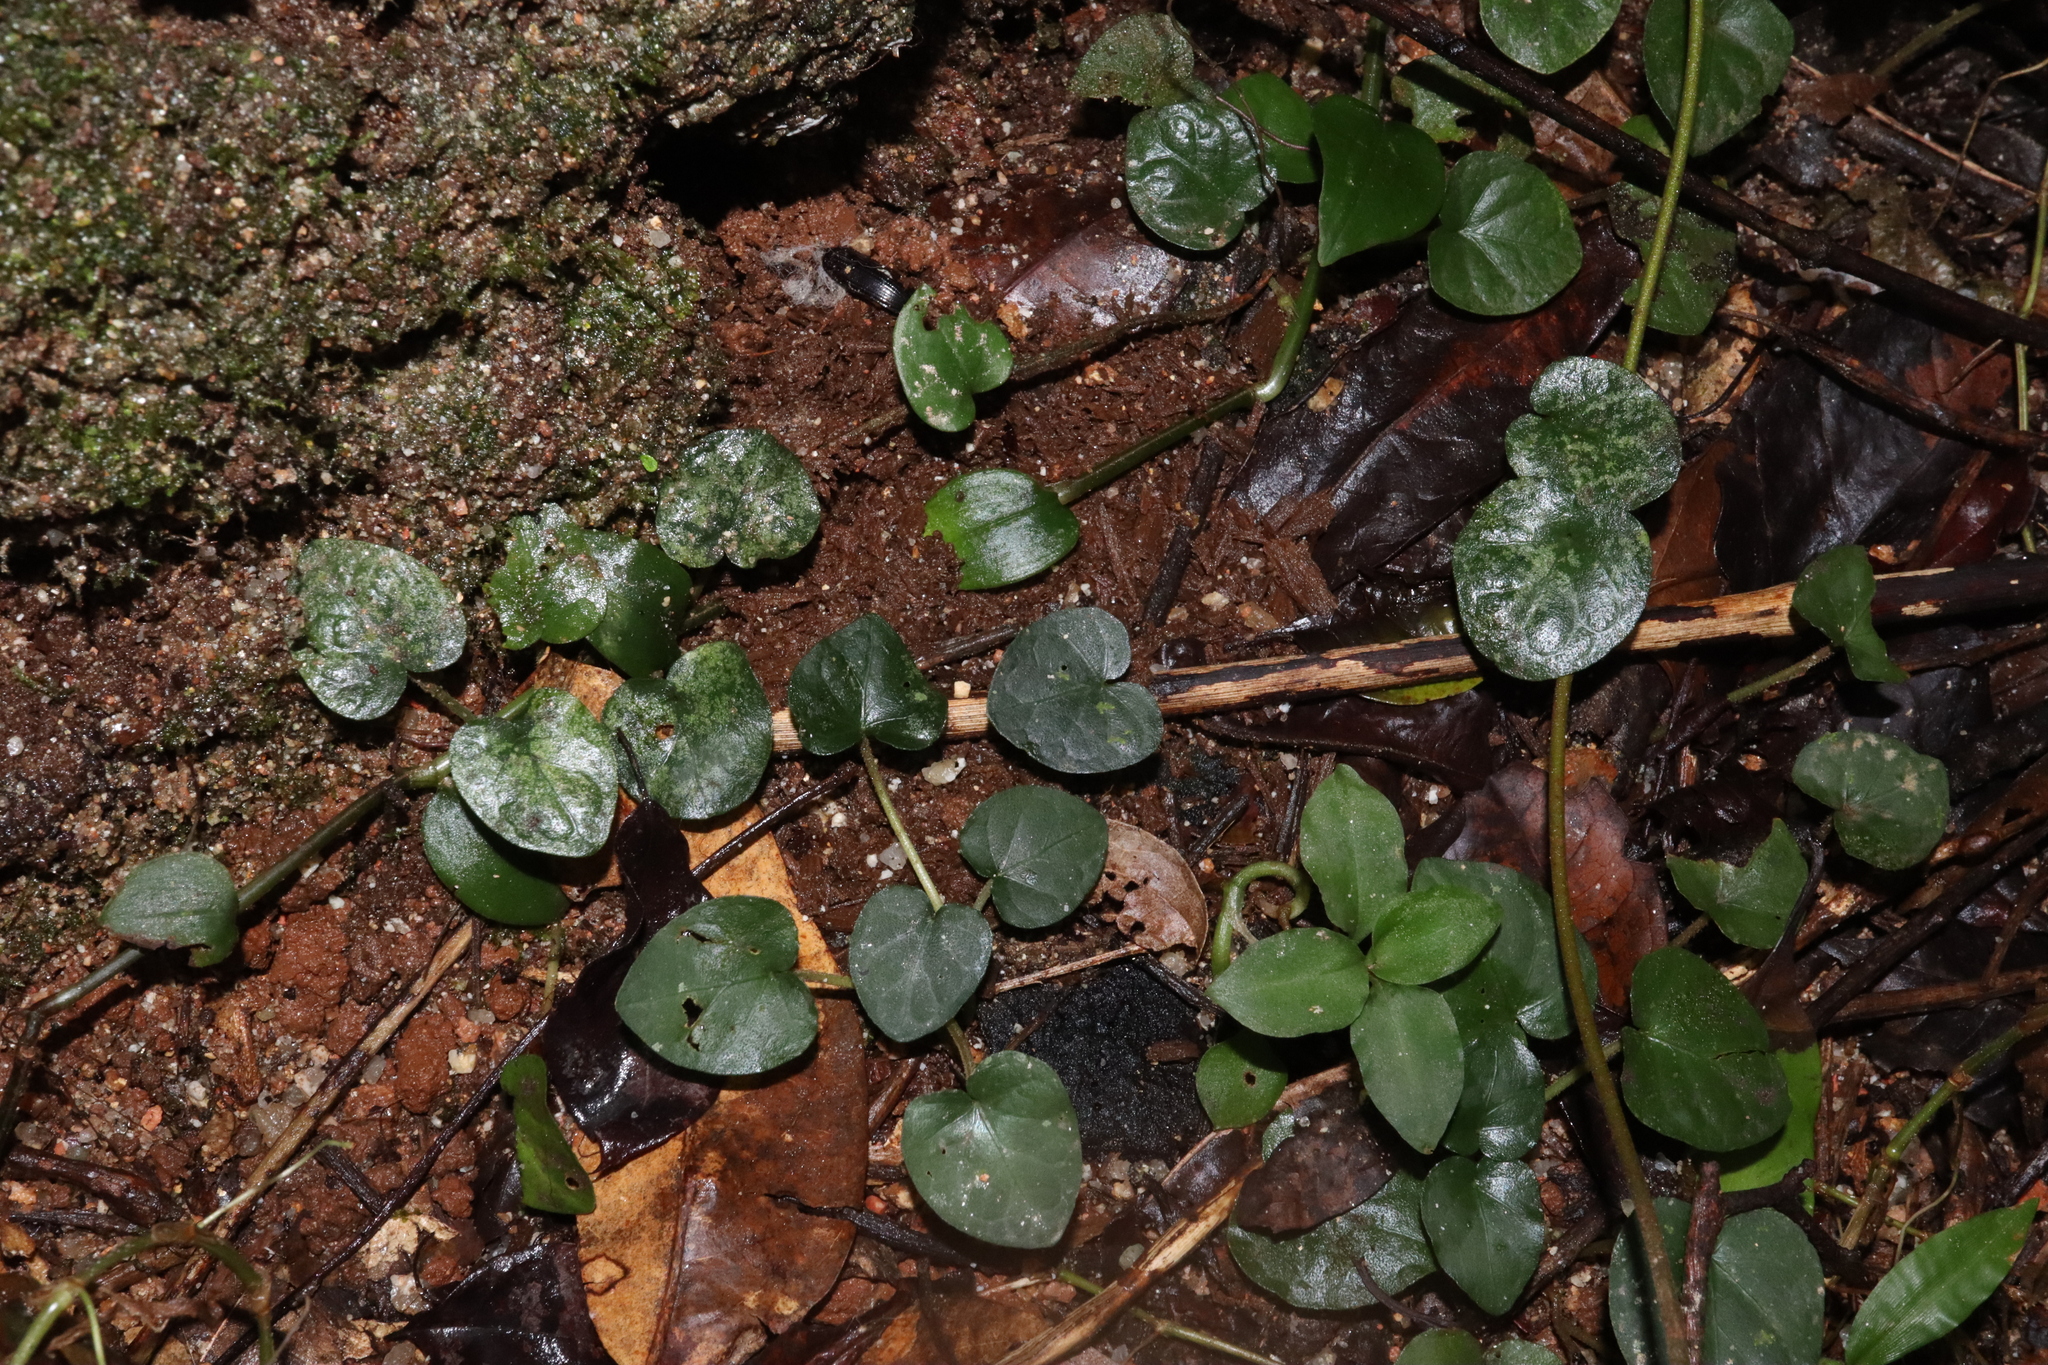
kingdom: Plantae
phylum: Tracheophyta
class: Magnoliopsida
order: Gentianales
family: Rubiaceae
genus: Geophila
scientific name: Geophila herbacea
